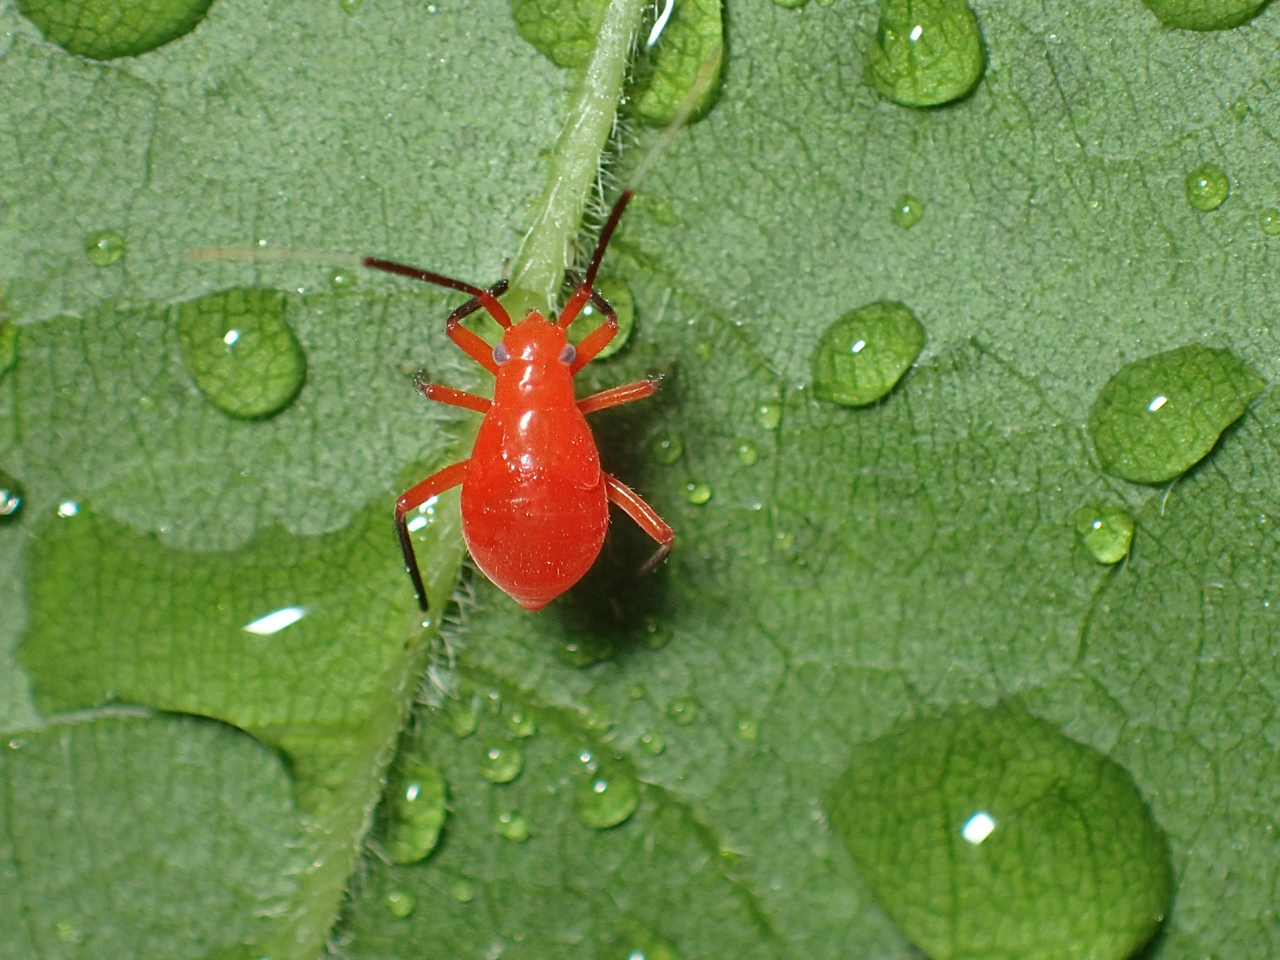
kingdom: Animalia
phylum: Arthropoda
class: Insecta
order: Hemiptera
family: Miridae
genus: Coccobaphes
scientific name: Coccobaphes frontifer
